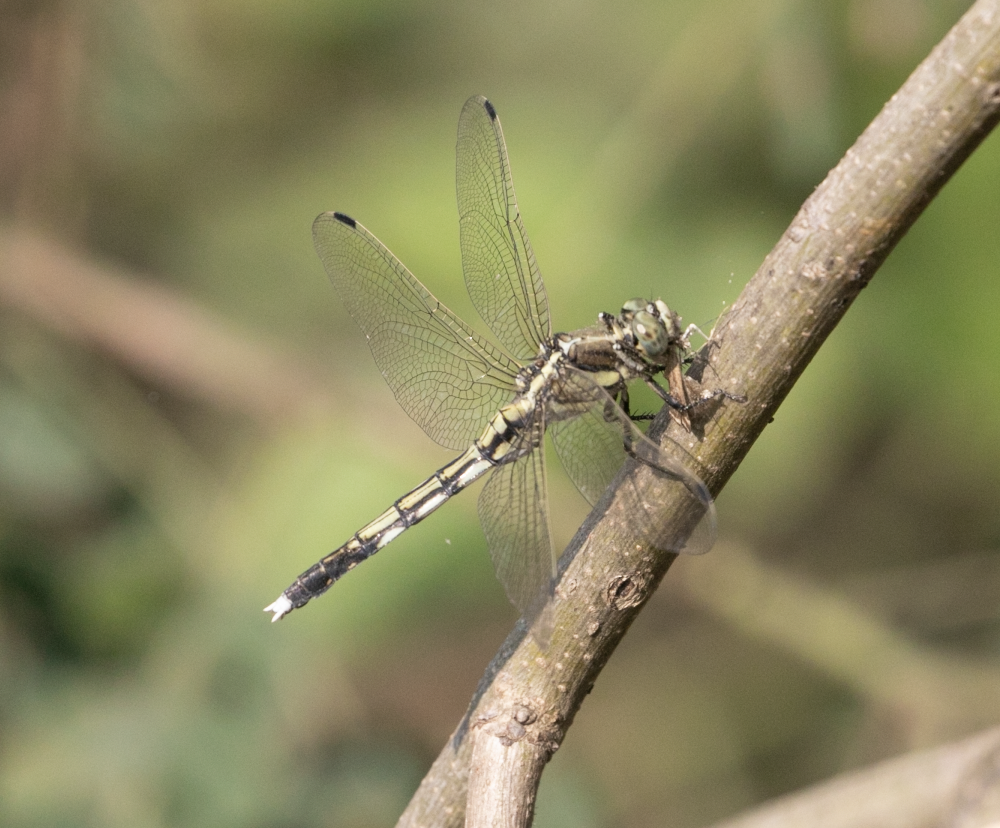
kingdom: Animalia
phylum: Arthropoda
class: Insecta
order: Odonata
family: Libellulidae
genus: Orthetrum
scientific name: Orthetrum albistylum
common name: White-tailed skimmer
